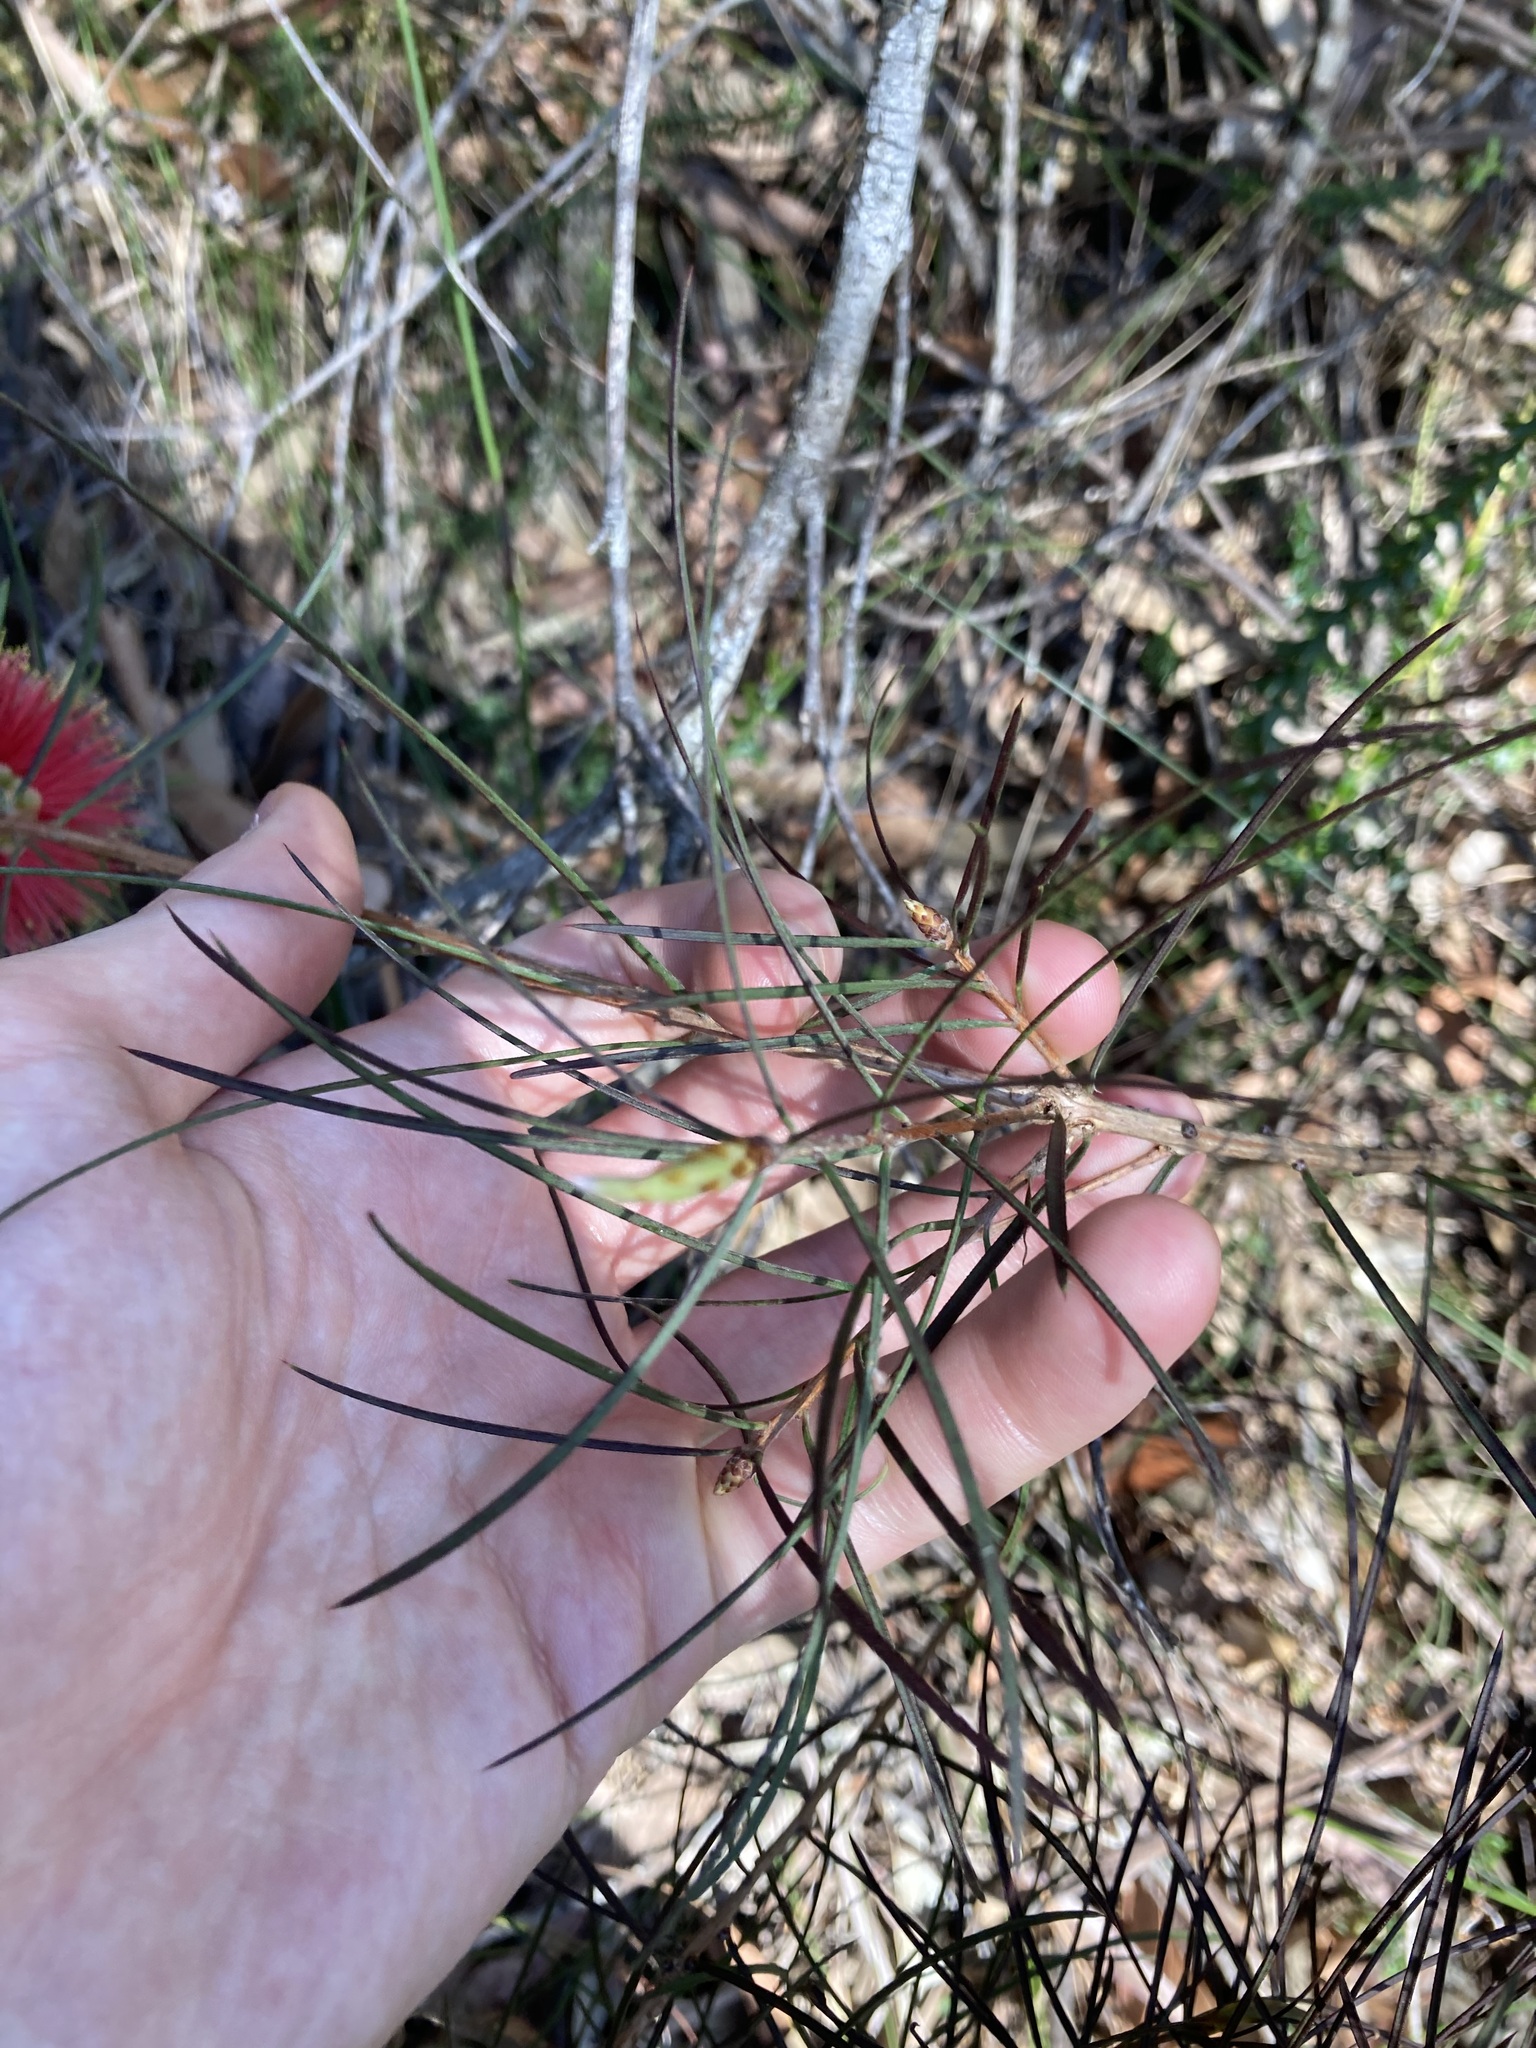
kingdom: Plantae
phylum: Tracheophyta
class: Magnoliopsida
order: Myrtales
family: Myrtaceae
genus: Callistemon
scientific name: Callistemon linearis
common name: Narrow-leaf bottlebrush
